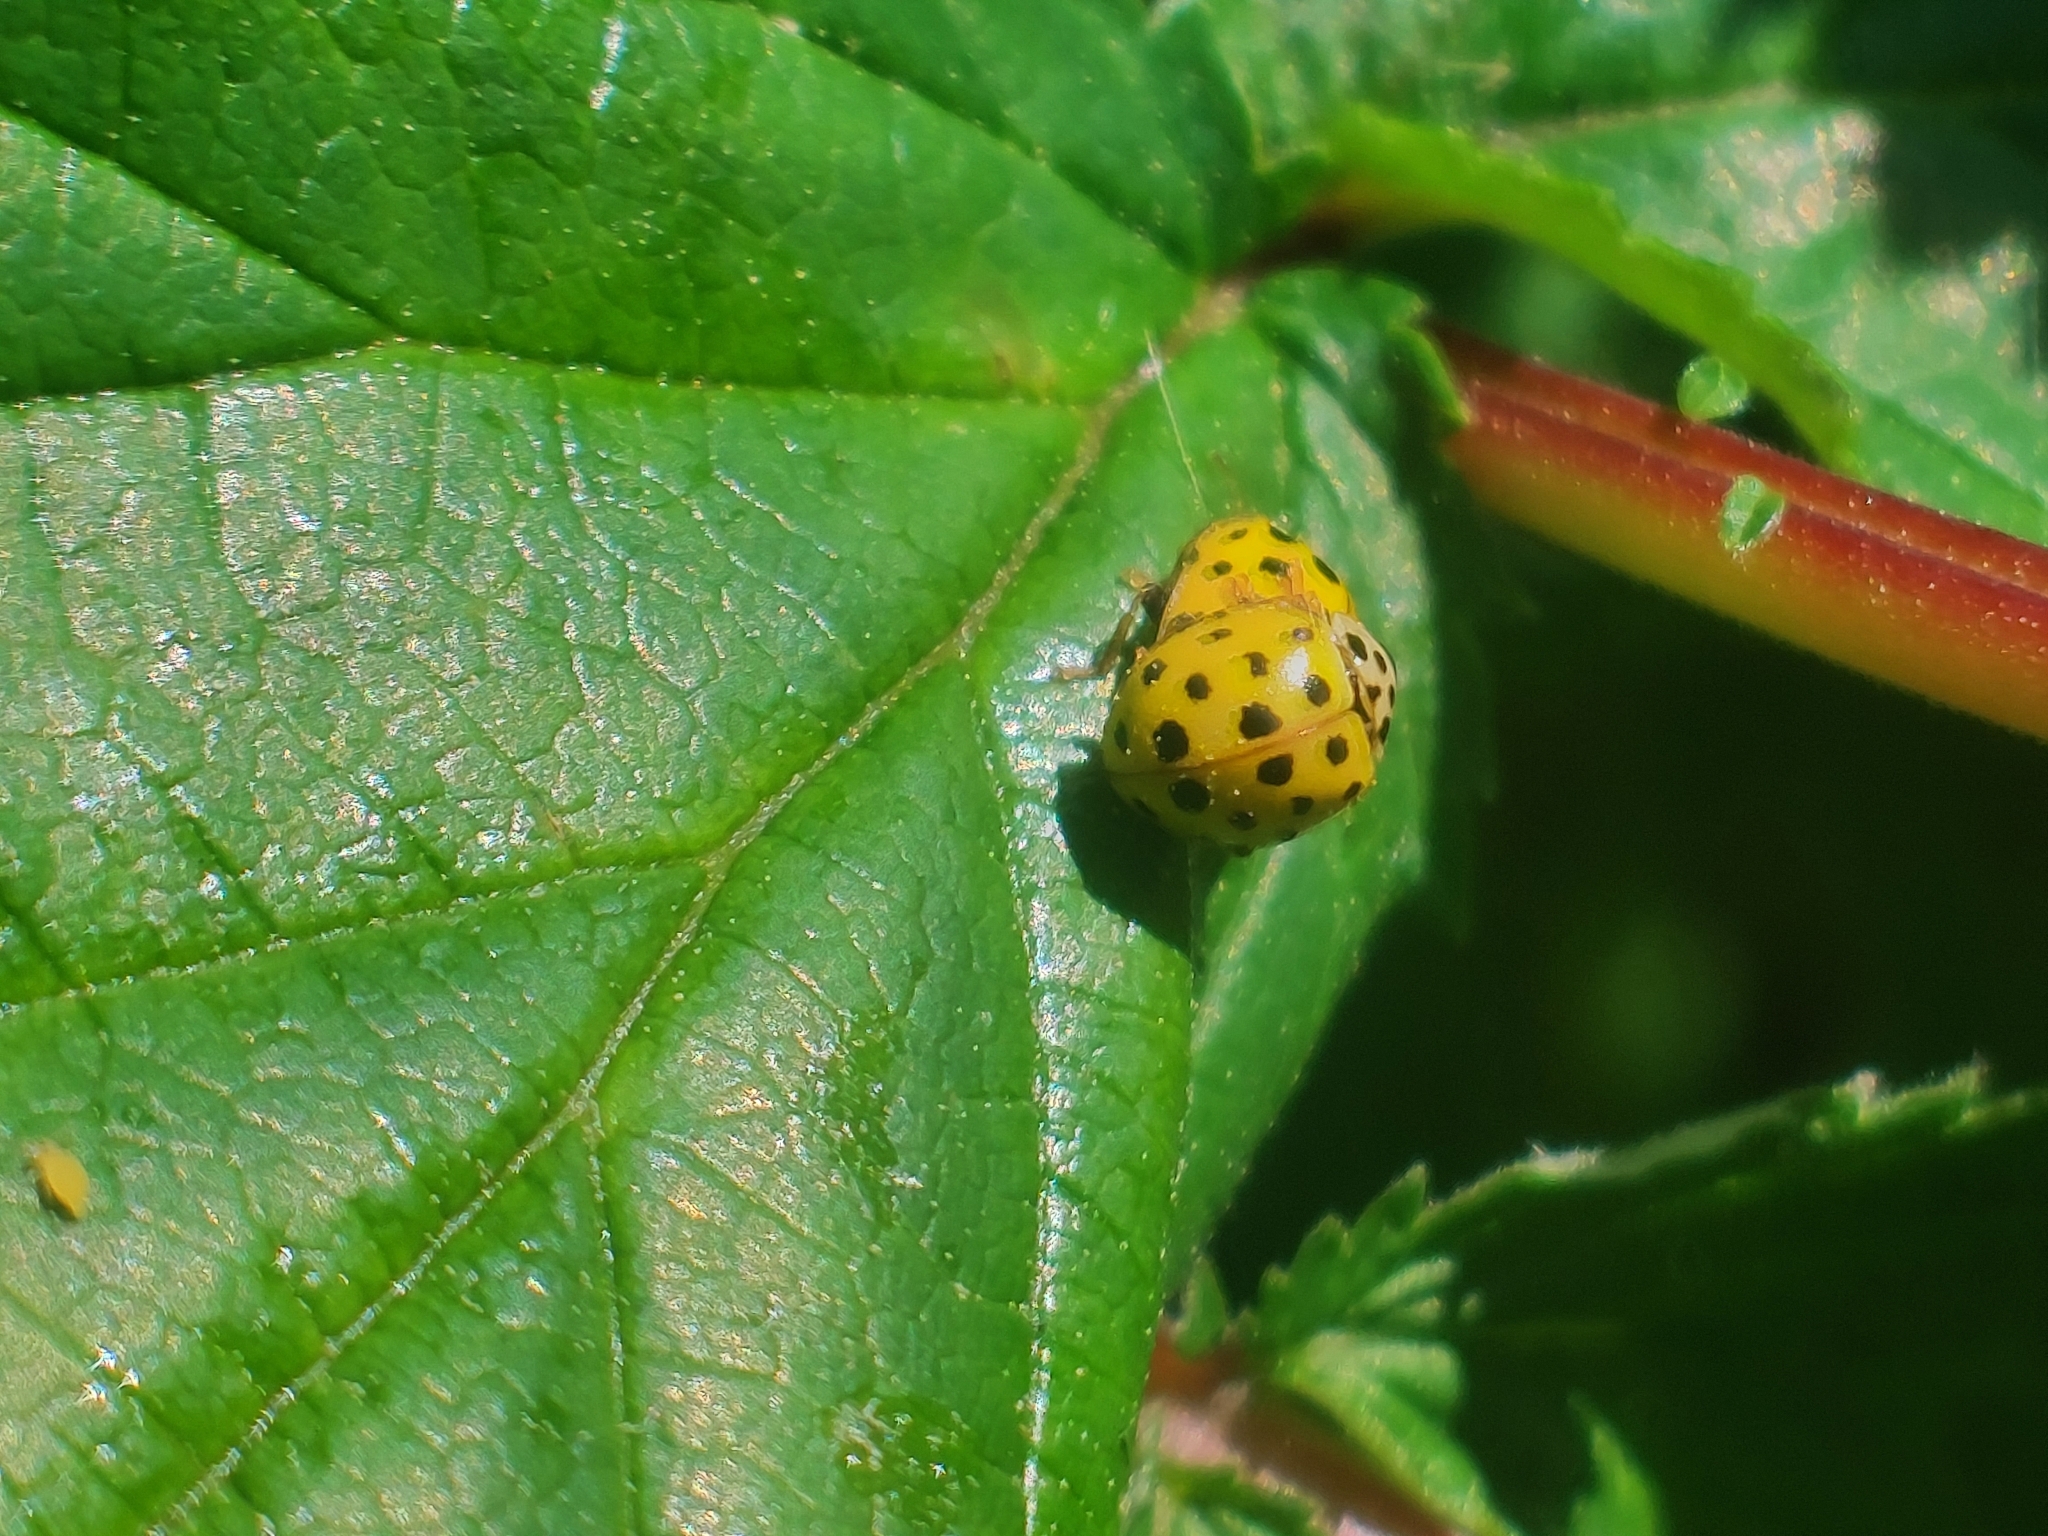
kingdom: Animalia
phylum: Arthropoda
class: Insecta
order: Coleoptera
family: Coccinellidae
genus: Psyllobora
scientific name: Psyllobora vigintiduopunctata
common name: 22-spot ladybird
